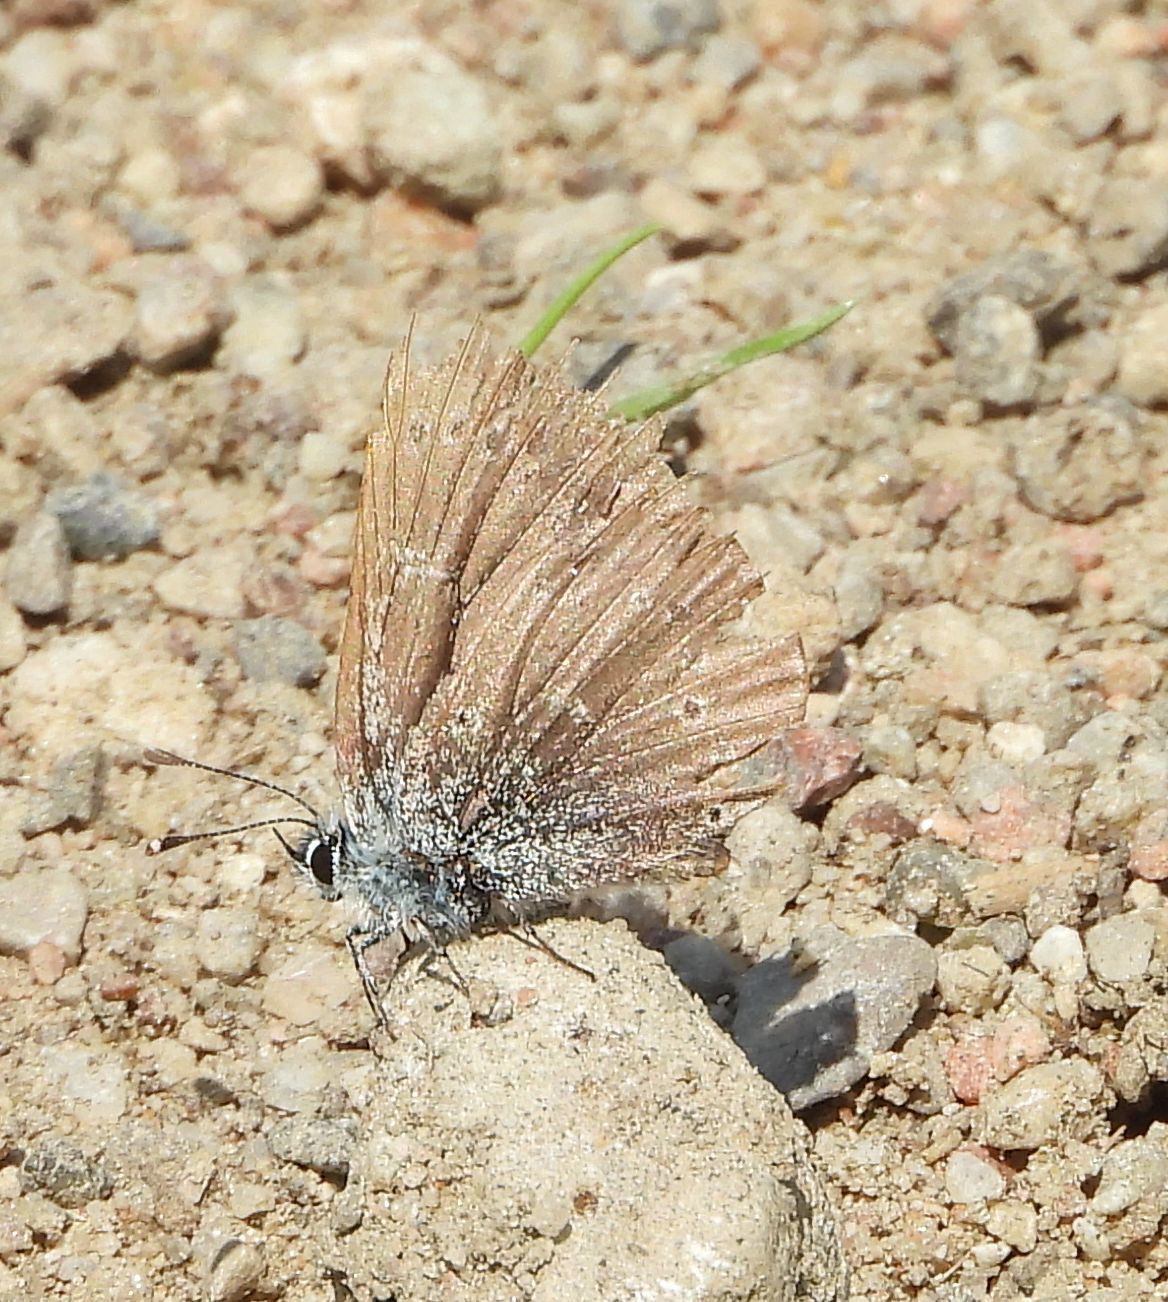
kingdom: Animalia
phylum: Arthropoda
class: Insecta
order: Lepidoptera
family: Lycaenidae
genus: Glaucopsyche
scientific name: Glaucopsyche lygdamus
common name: Silvery blue
